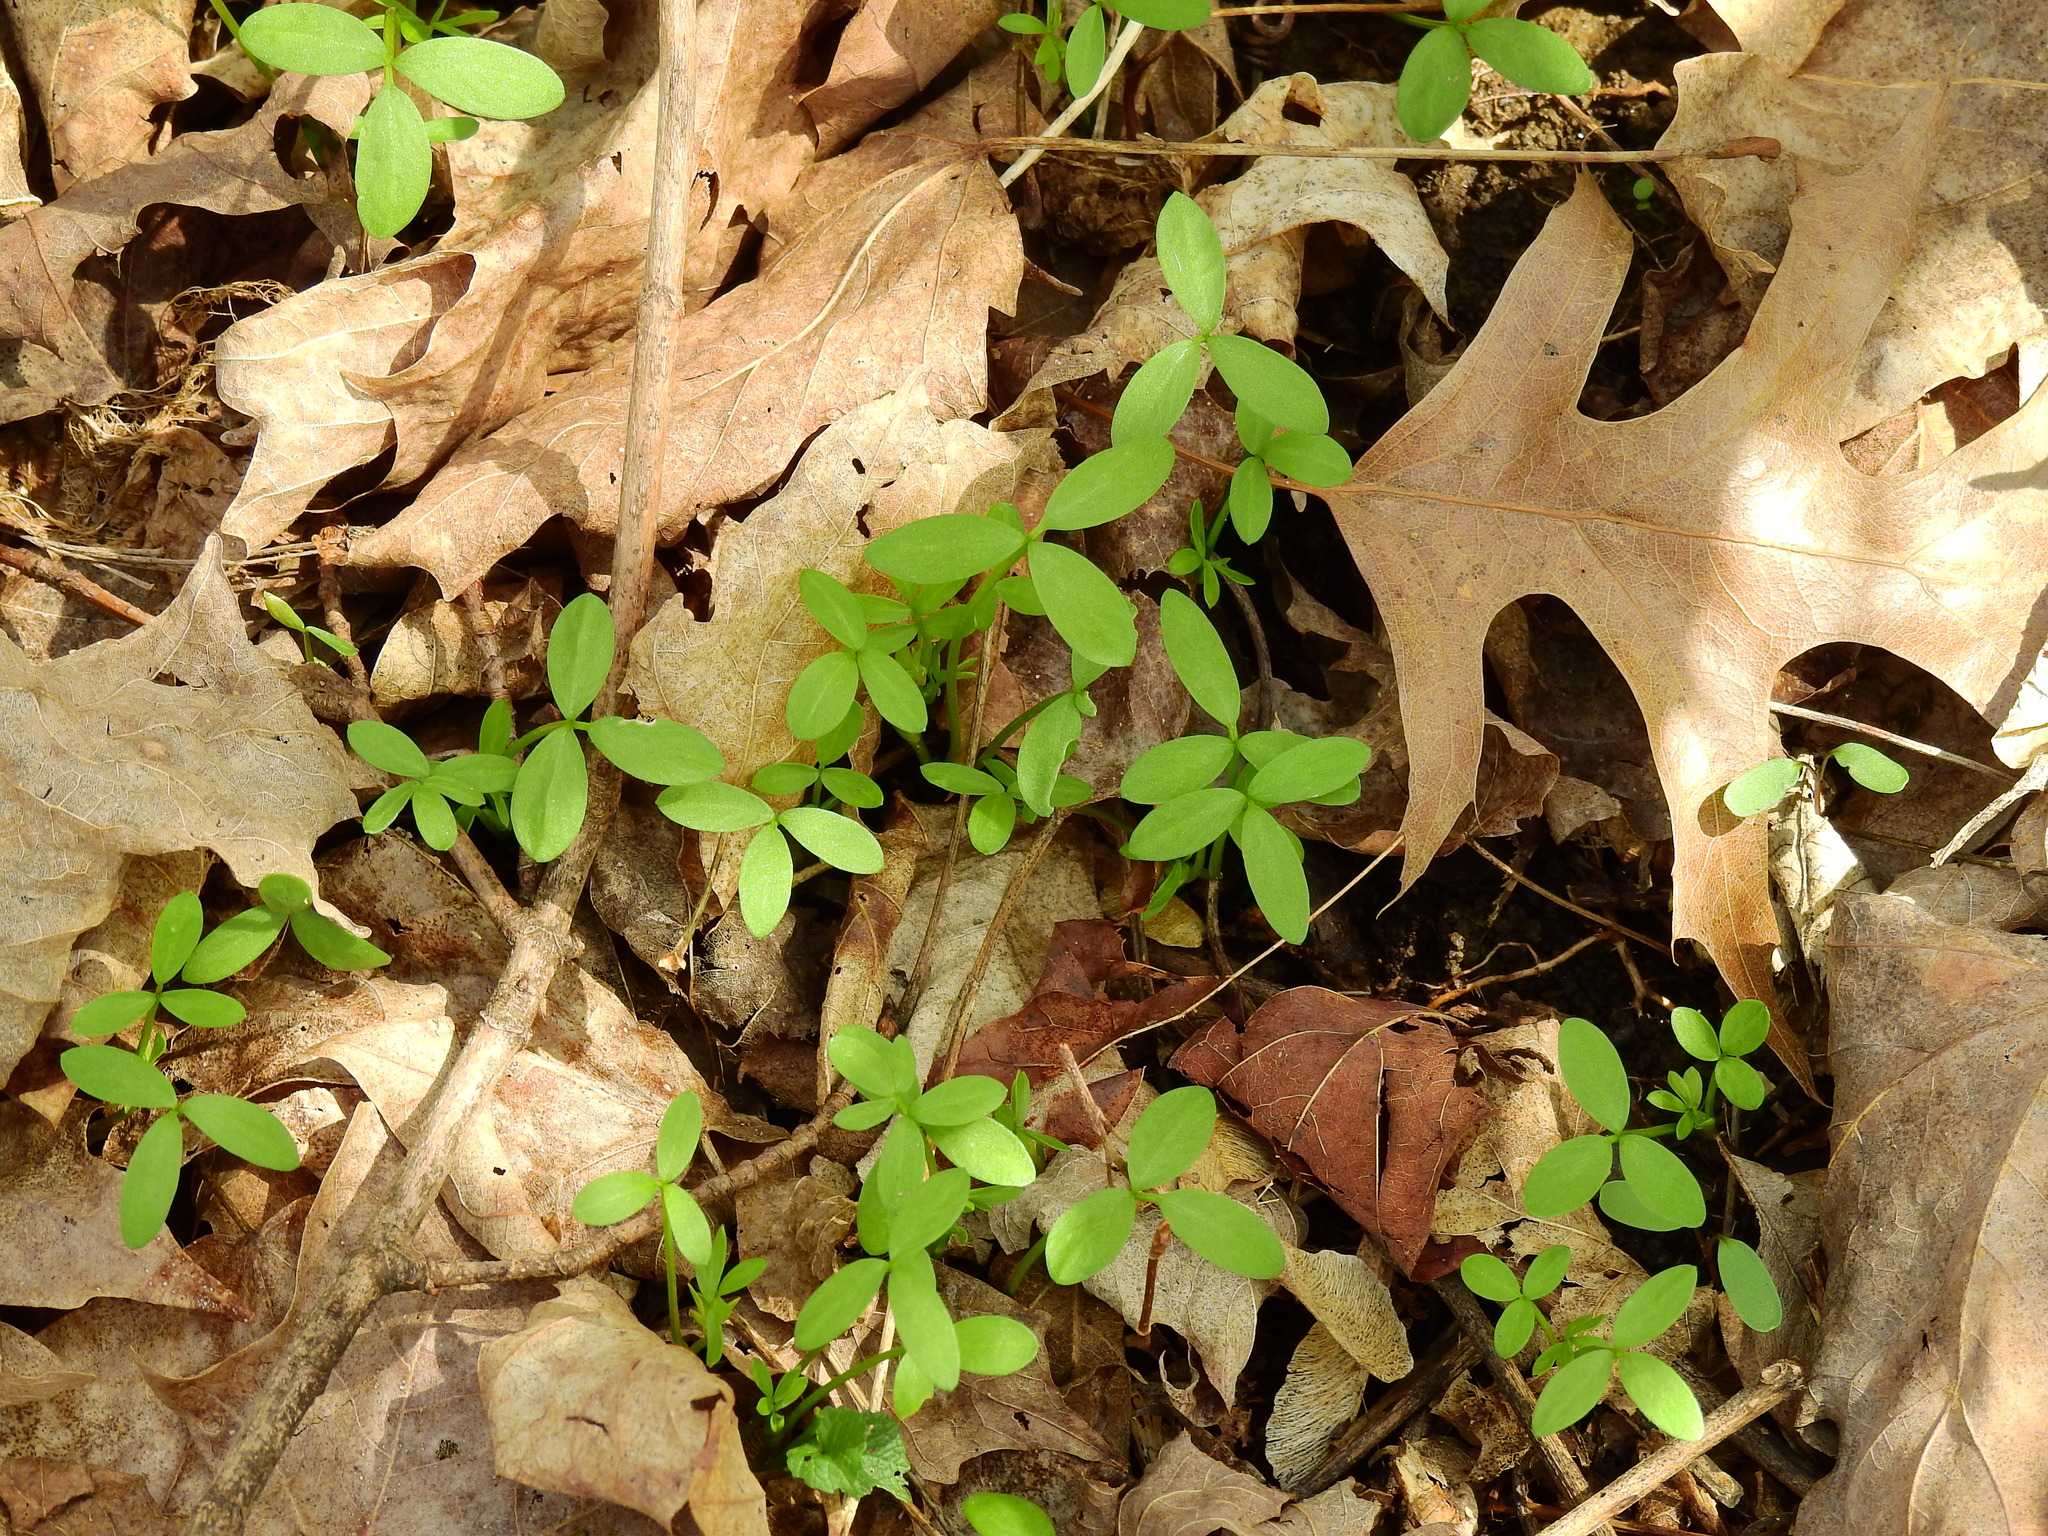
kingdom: Plantae
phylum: Tracheophyta
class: Magnoliopsida
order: Brassicales
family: Limnanthaceae
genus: Floerkea
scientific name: Floerkea proserpinacoides
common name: False mermaid
